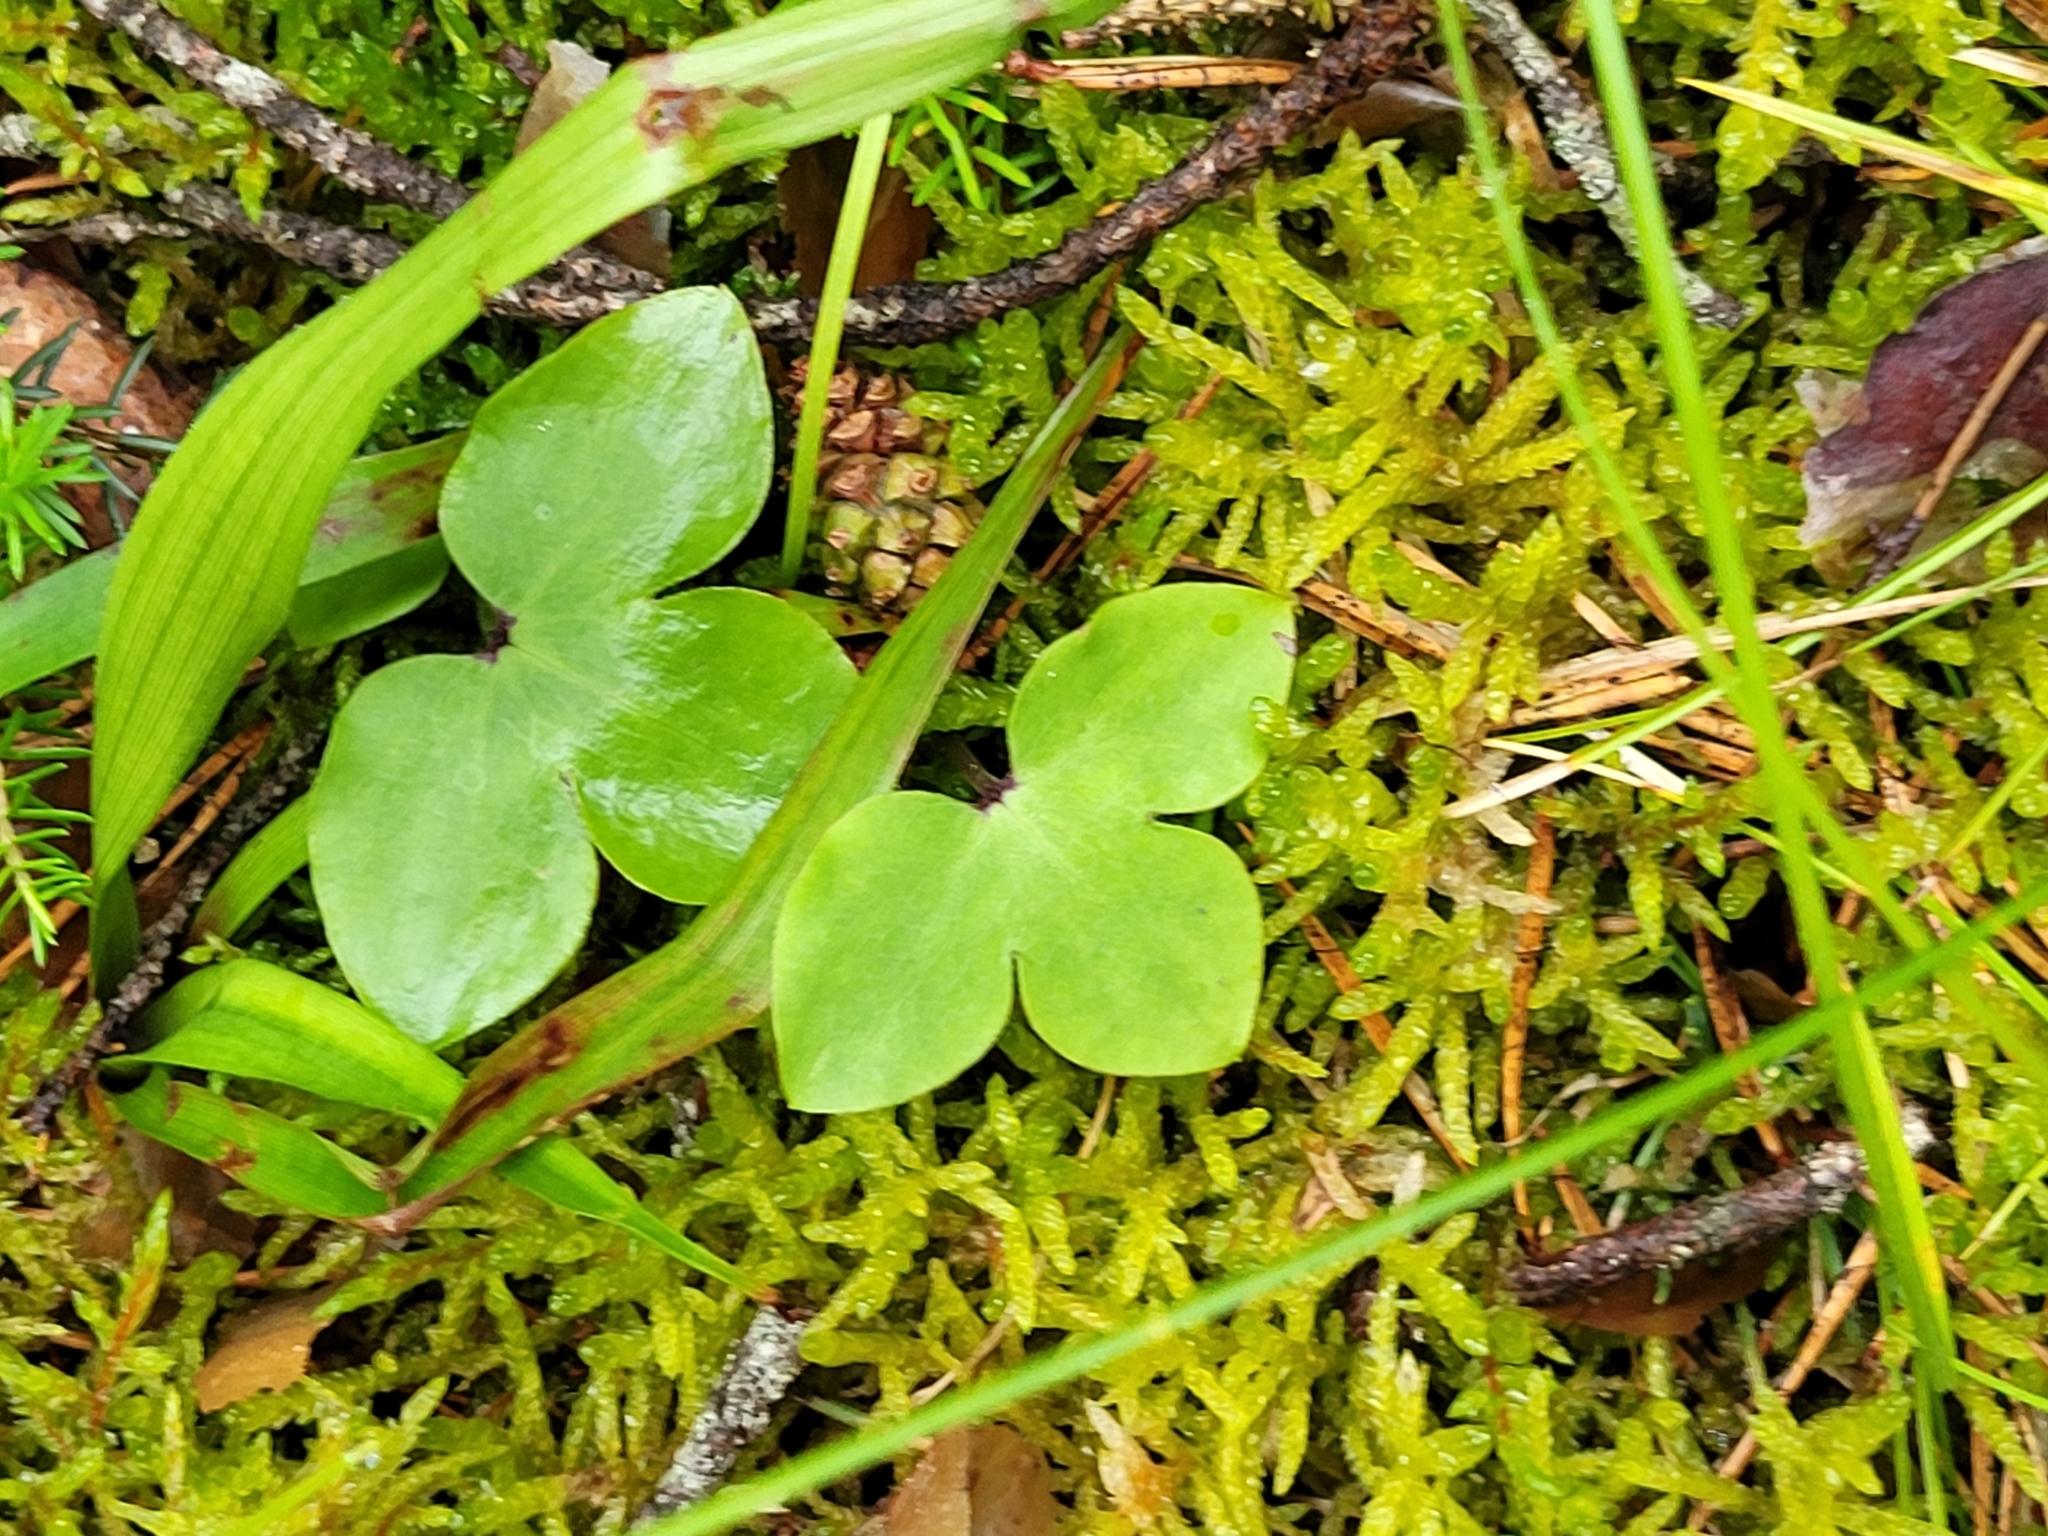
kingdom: Plantae
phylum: Tracheophyta
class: Magnoliopsida
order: Ranunculales
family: Ranunculaceae
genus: Hepatica
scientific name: Hepatica nobilis
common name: Liverleaf
